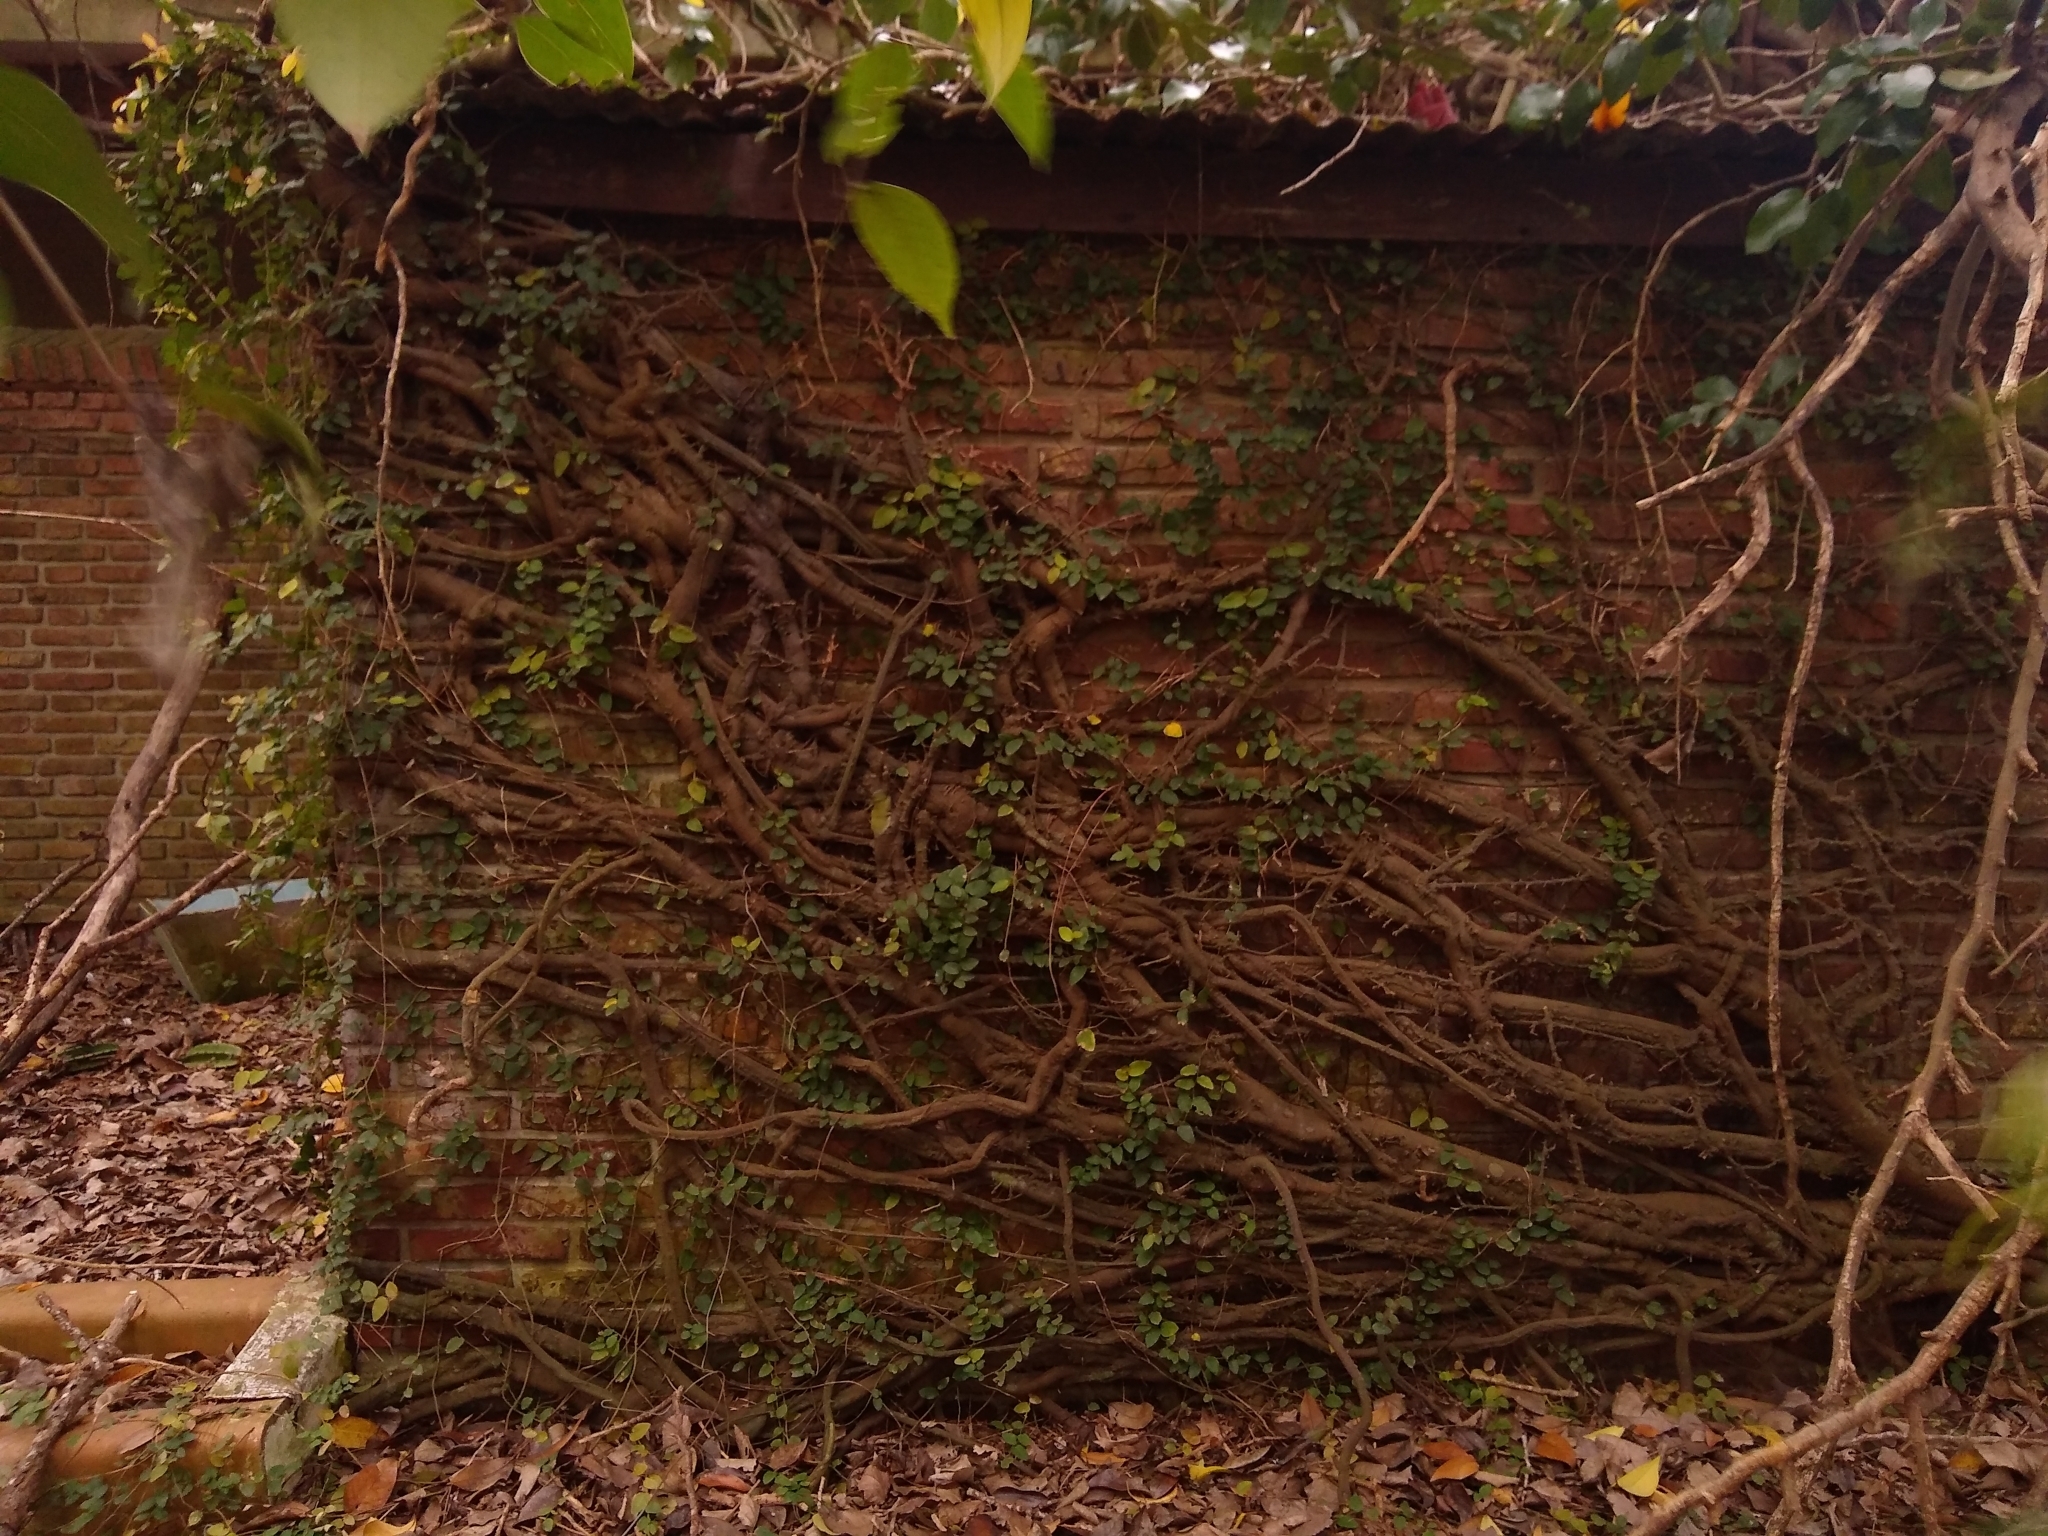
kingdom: Plantae
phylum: Tracheophyta
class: Magnoliopsida
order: Rosales
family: Moraceae
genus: Ficus
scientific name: Ficus pumila
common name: Climbingfig
